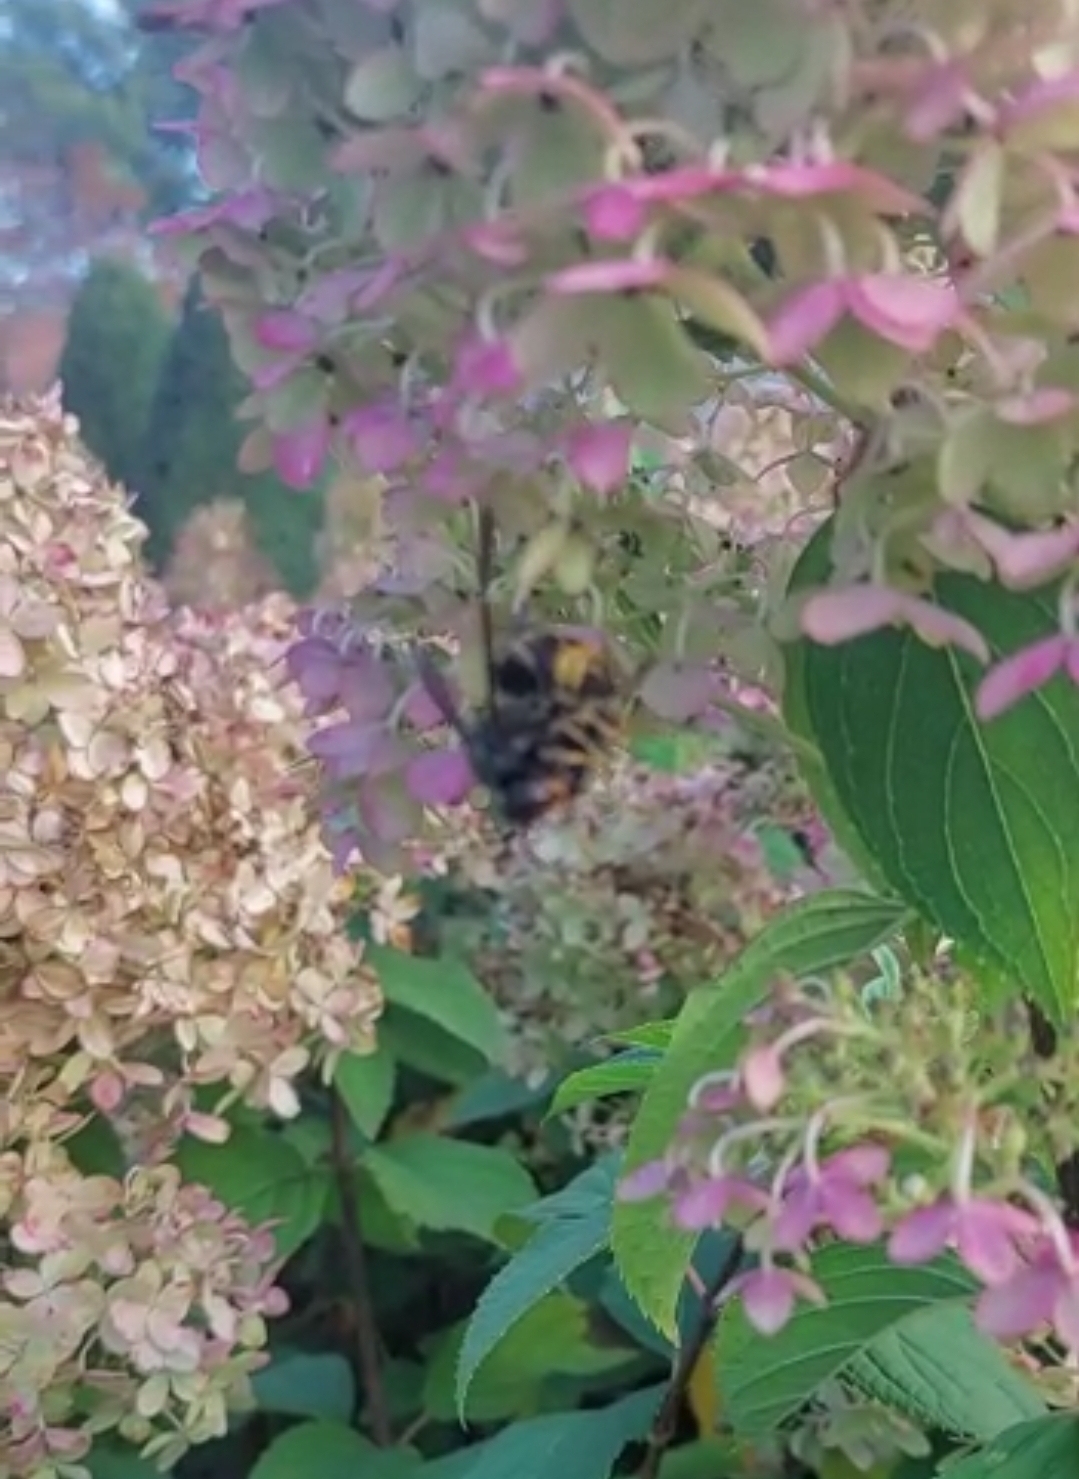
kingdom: Animalia
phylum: Arthropoda
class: Insecta
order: Hymenoptera
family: Vespidae
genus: Vespa
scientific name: Vespa velutina
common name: Asian hornet
